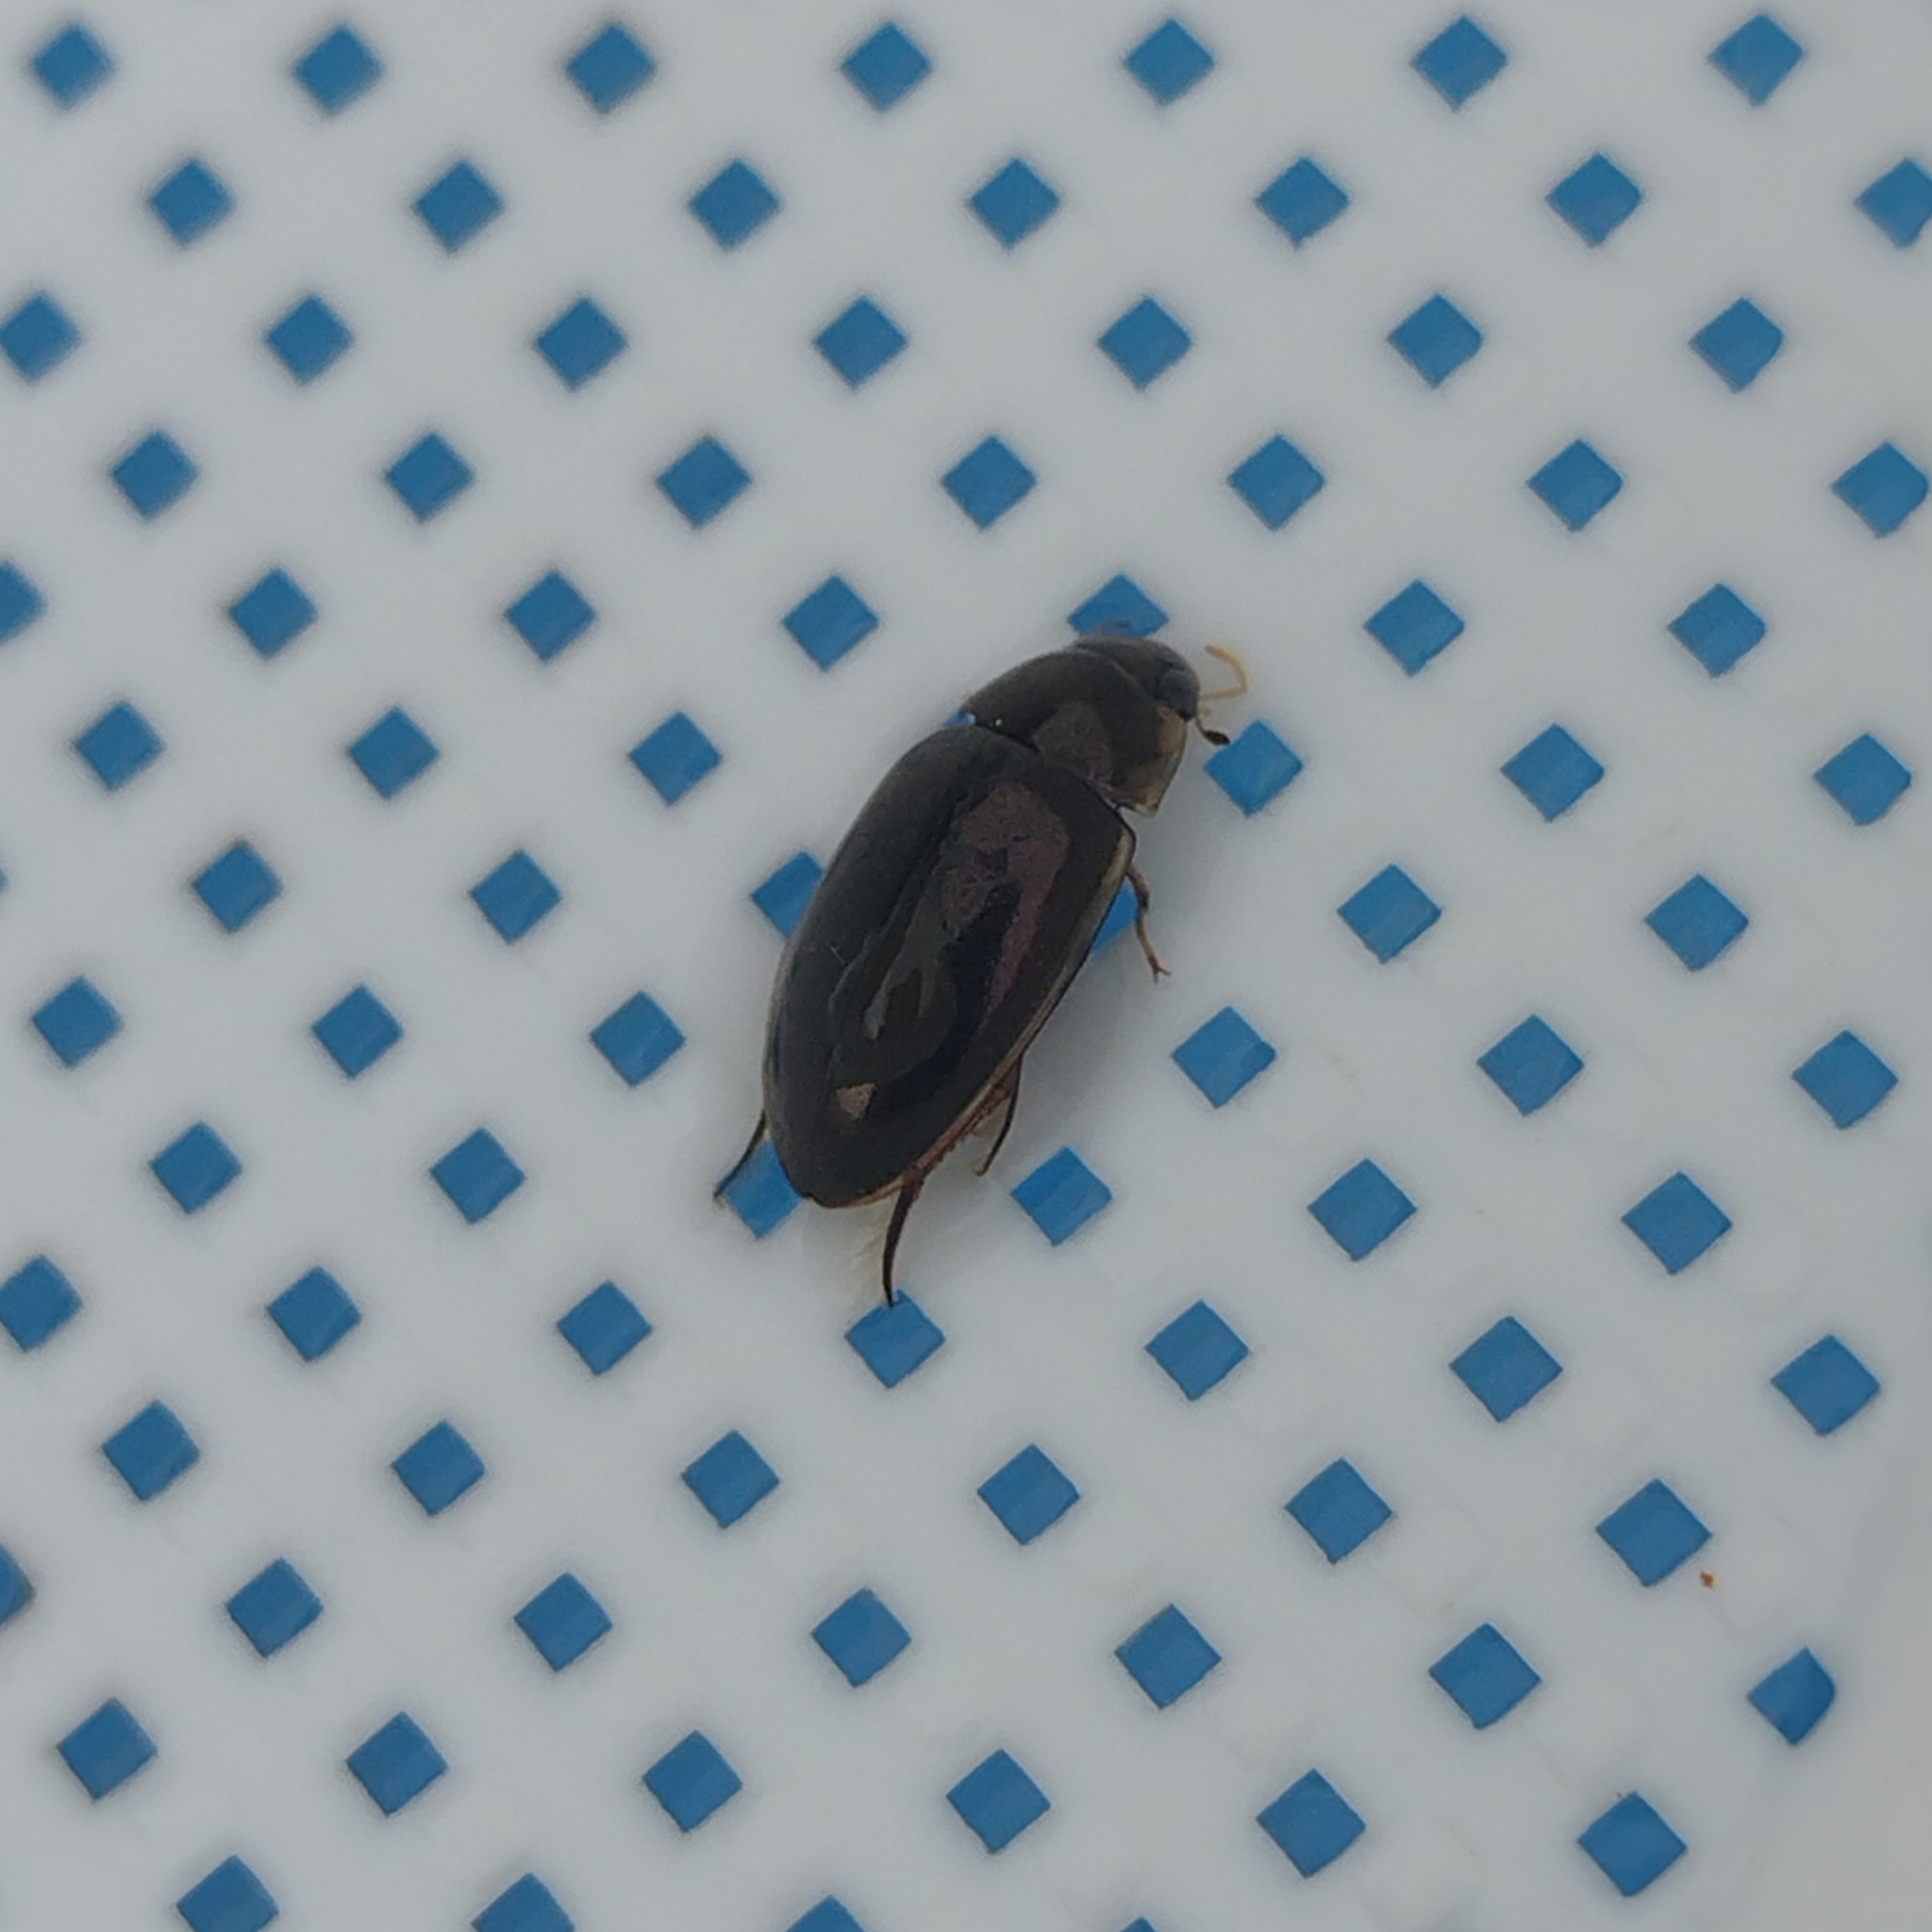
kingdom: Animalia
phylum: Arthropoda
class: Insecta
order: Coleoptera
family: Hydrophilidae
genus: Tropisternus
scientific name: Tropisternus lateralis
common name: Lateral-banded water scavenger beetle
